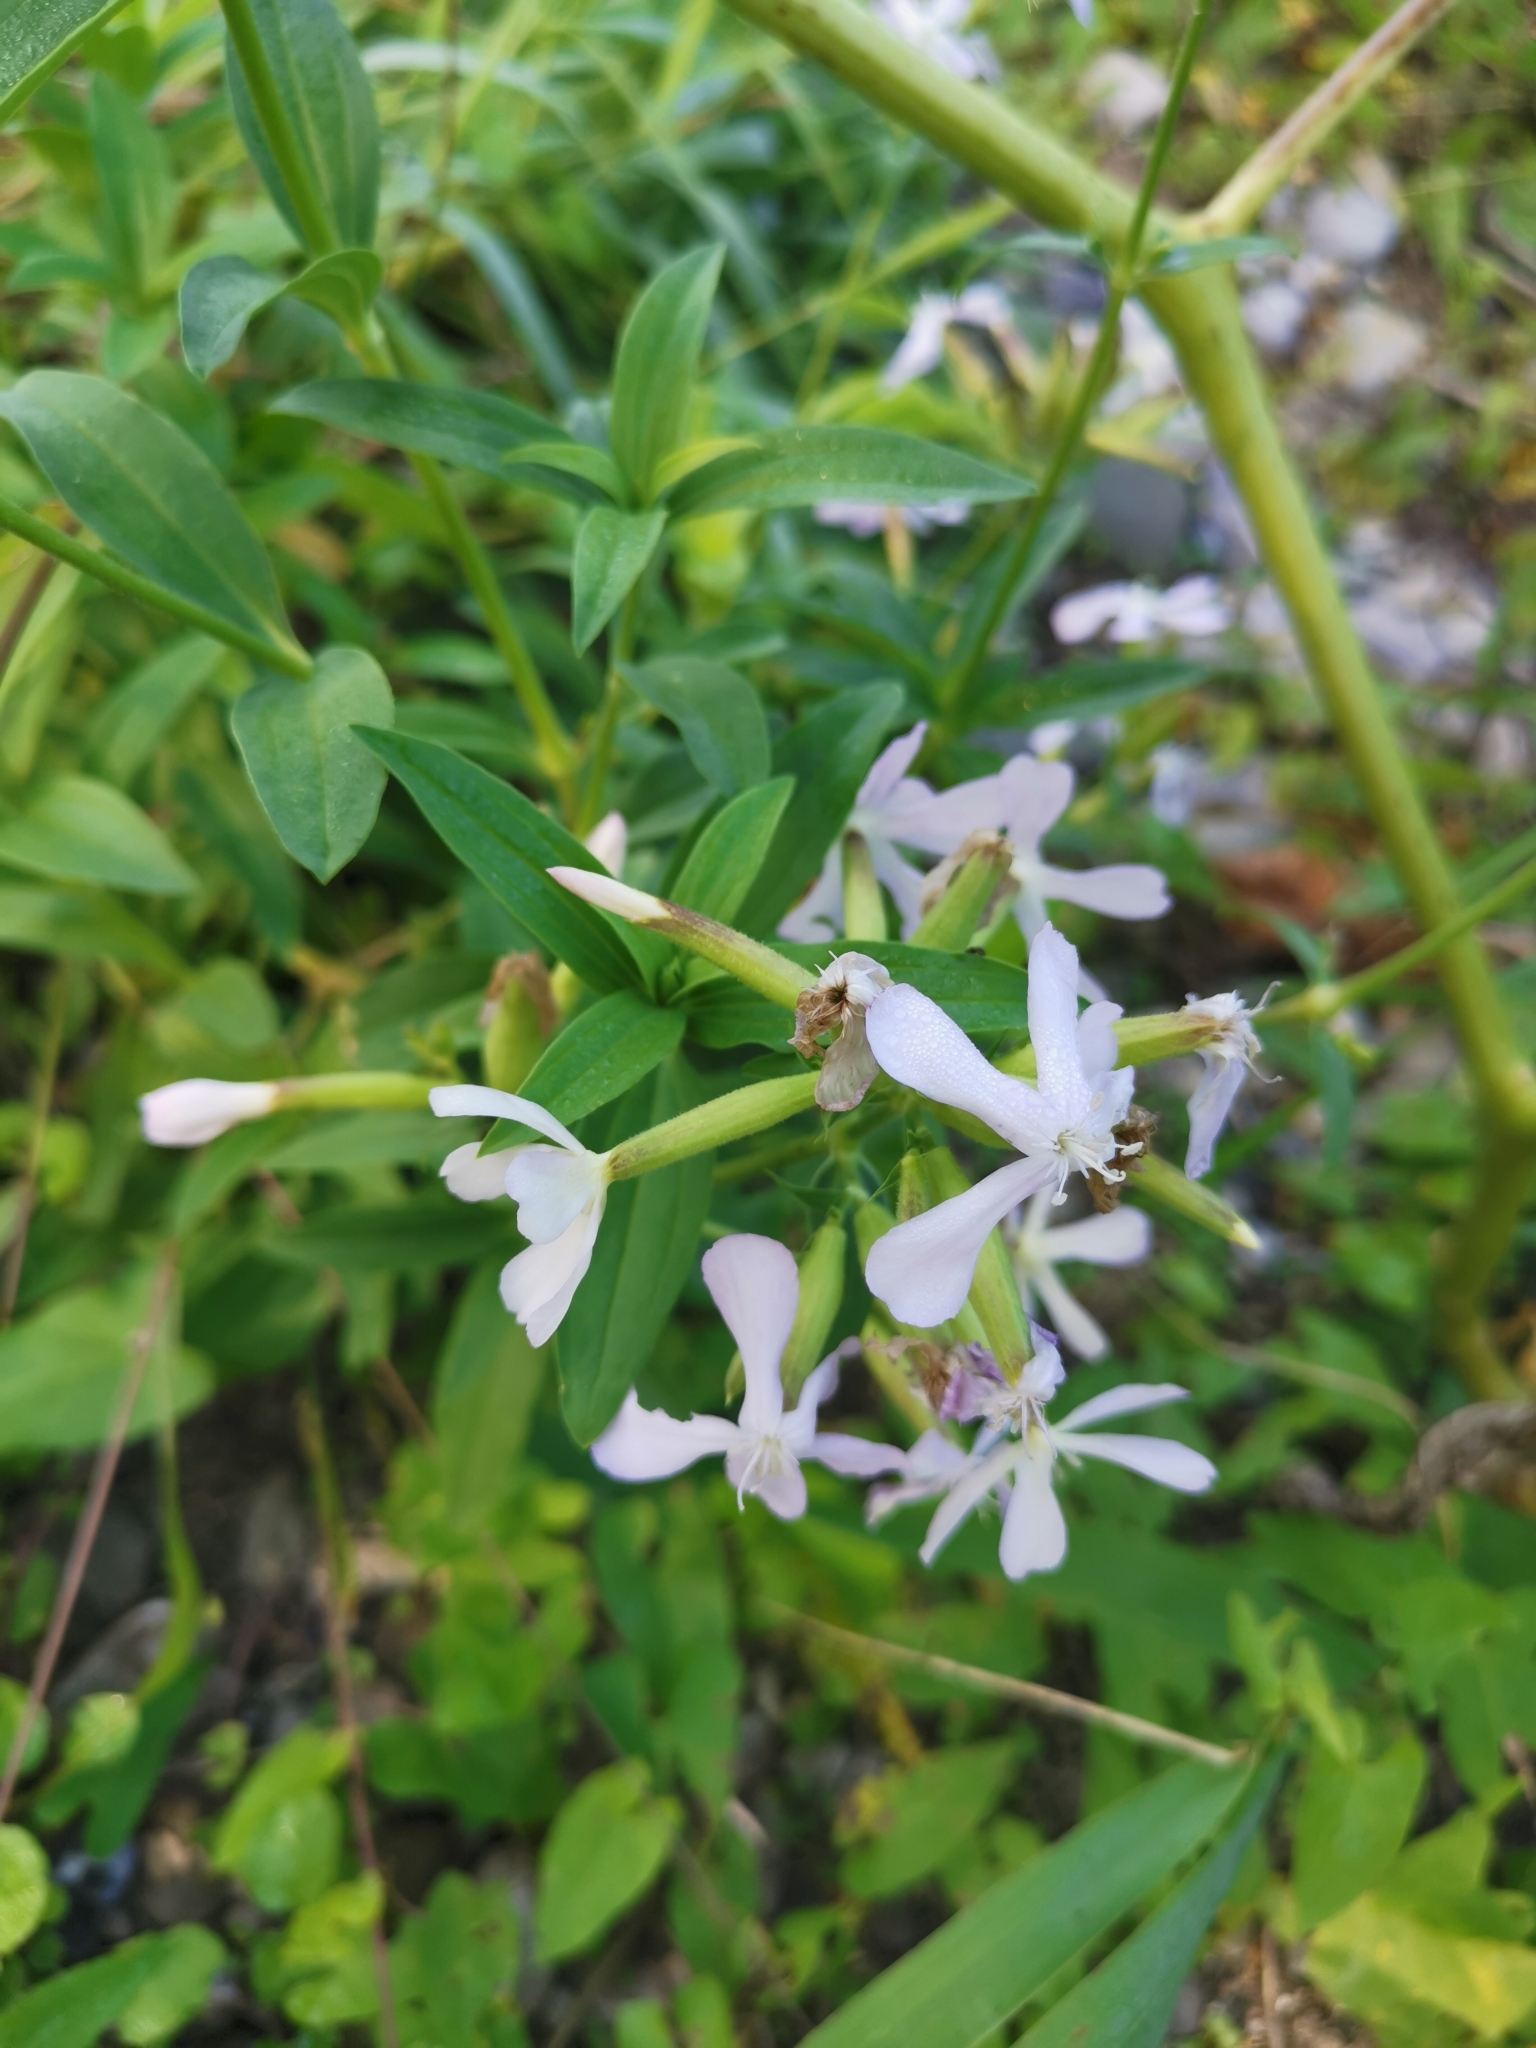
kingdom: Plantae
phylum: Tracheophyta
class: Magnoliopsida
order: Caryophyllales
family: Caryophyllaceae
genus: Saponaria
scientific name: Saponaria officinalis
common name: Soapwort
